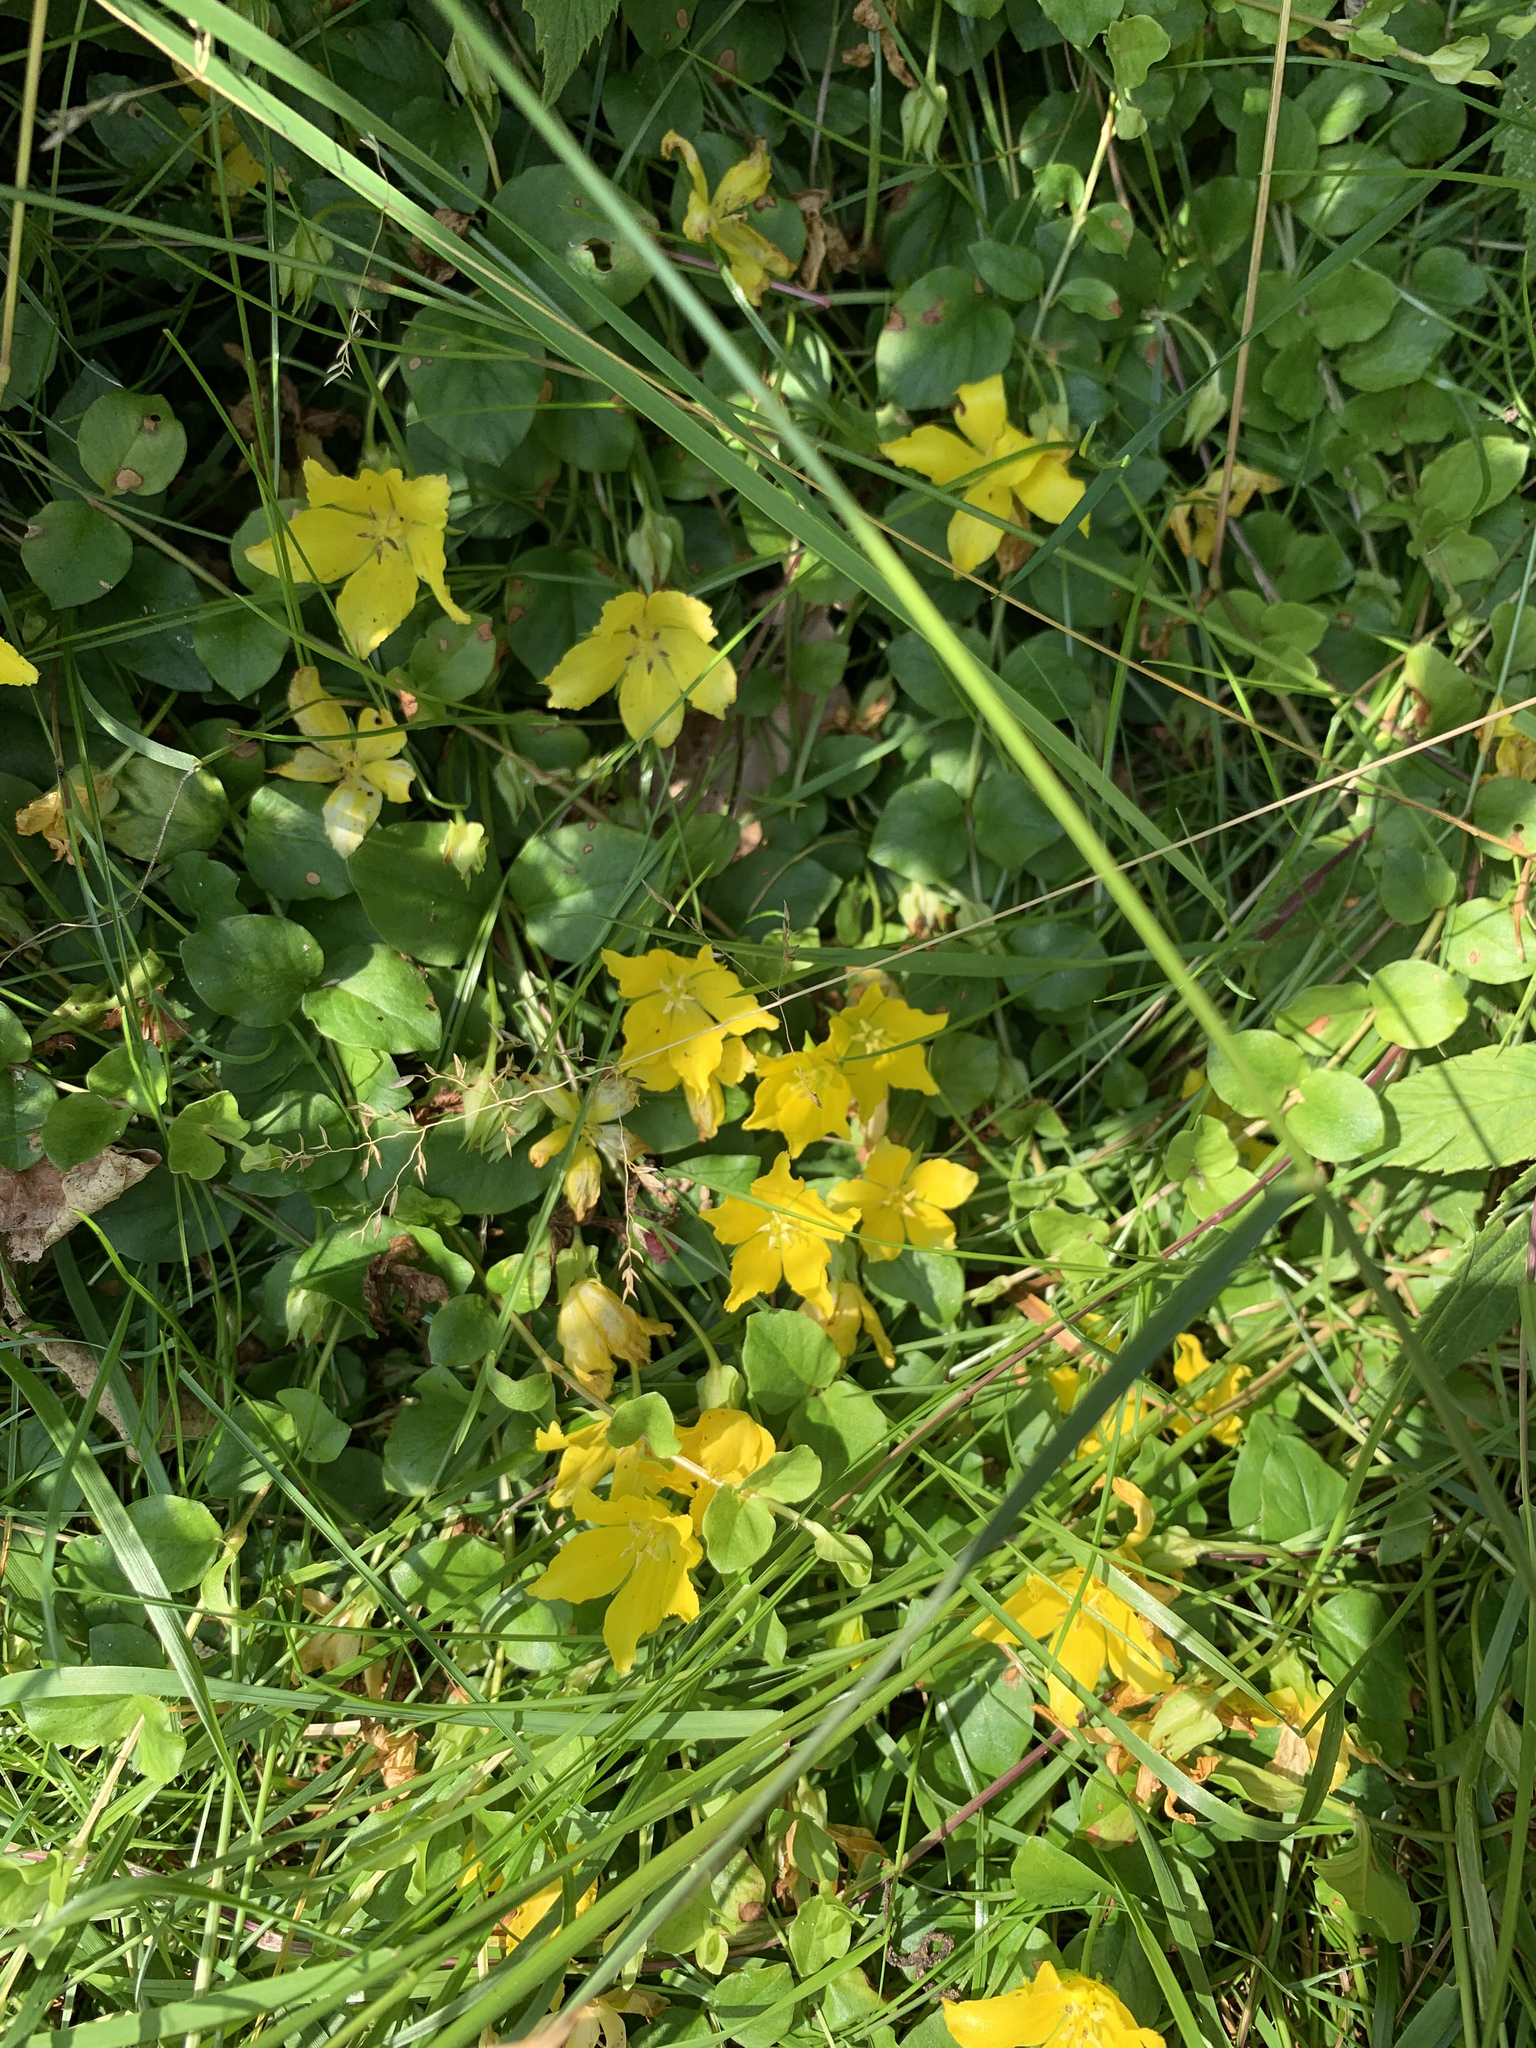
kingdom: Plantae
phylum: Tracheophyta
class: Magnoliopsida
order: Ericales
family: Primulaceae
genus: Lysimachia
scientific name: Lysimachia nummularia
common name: Moneywort
